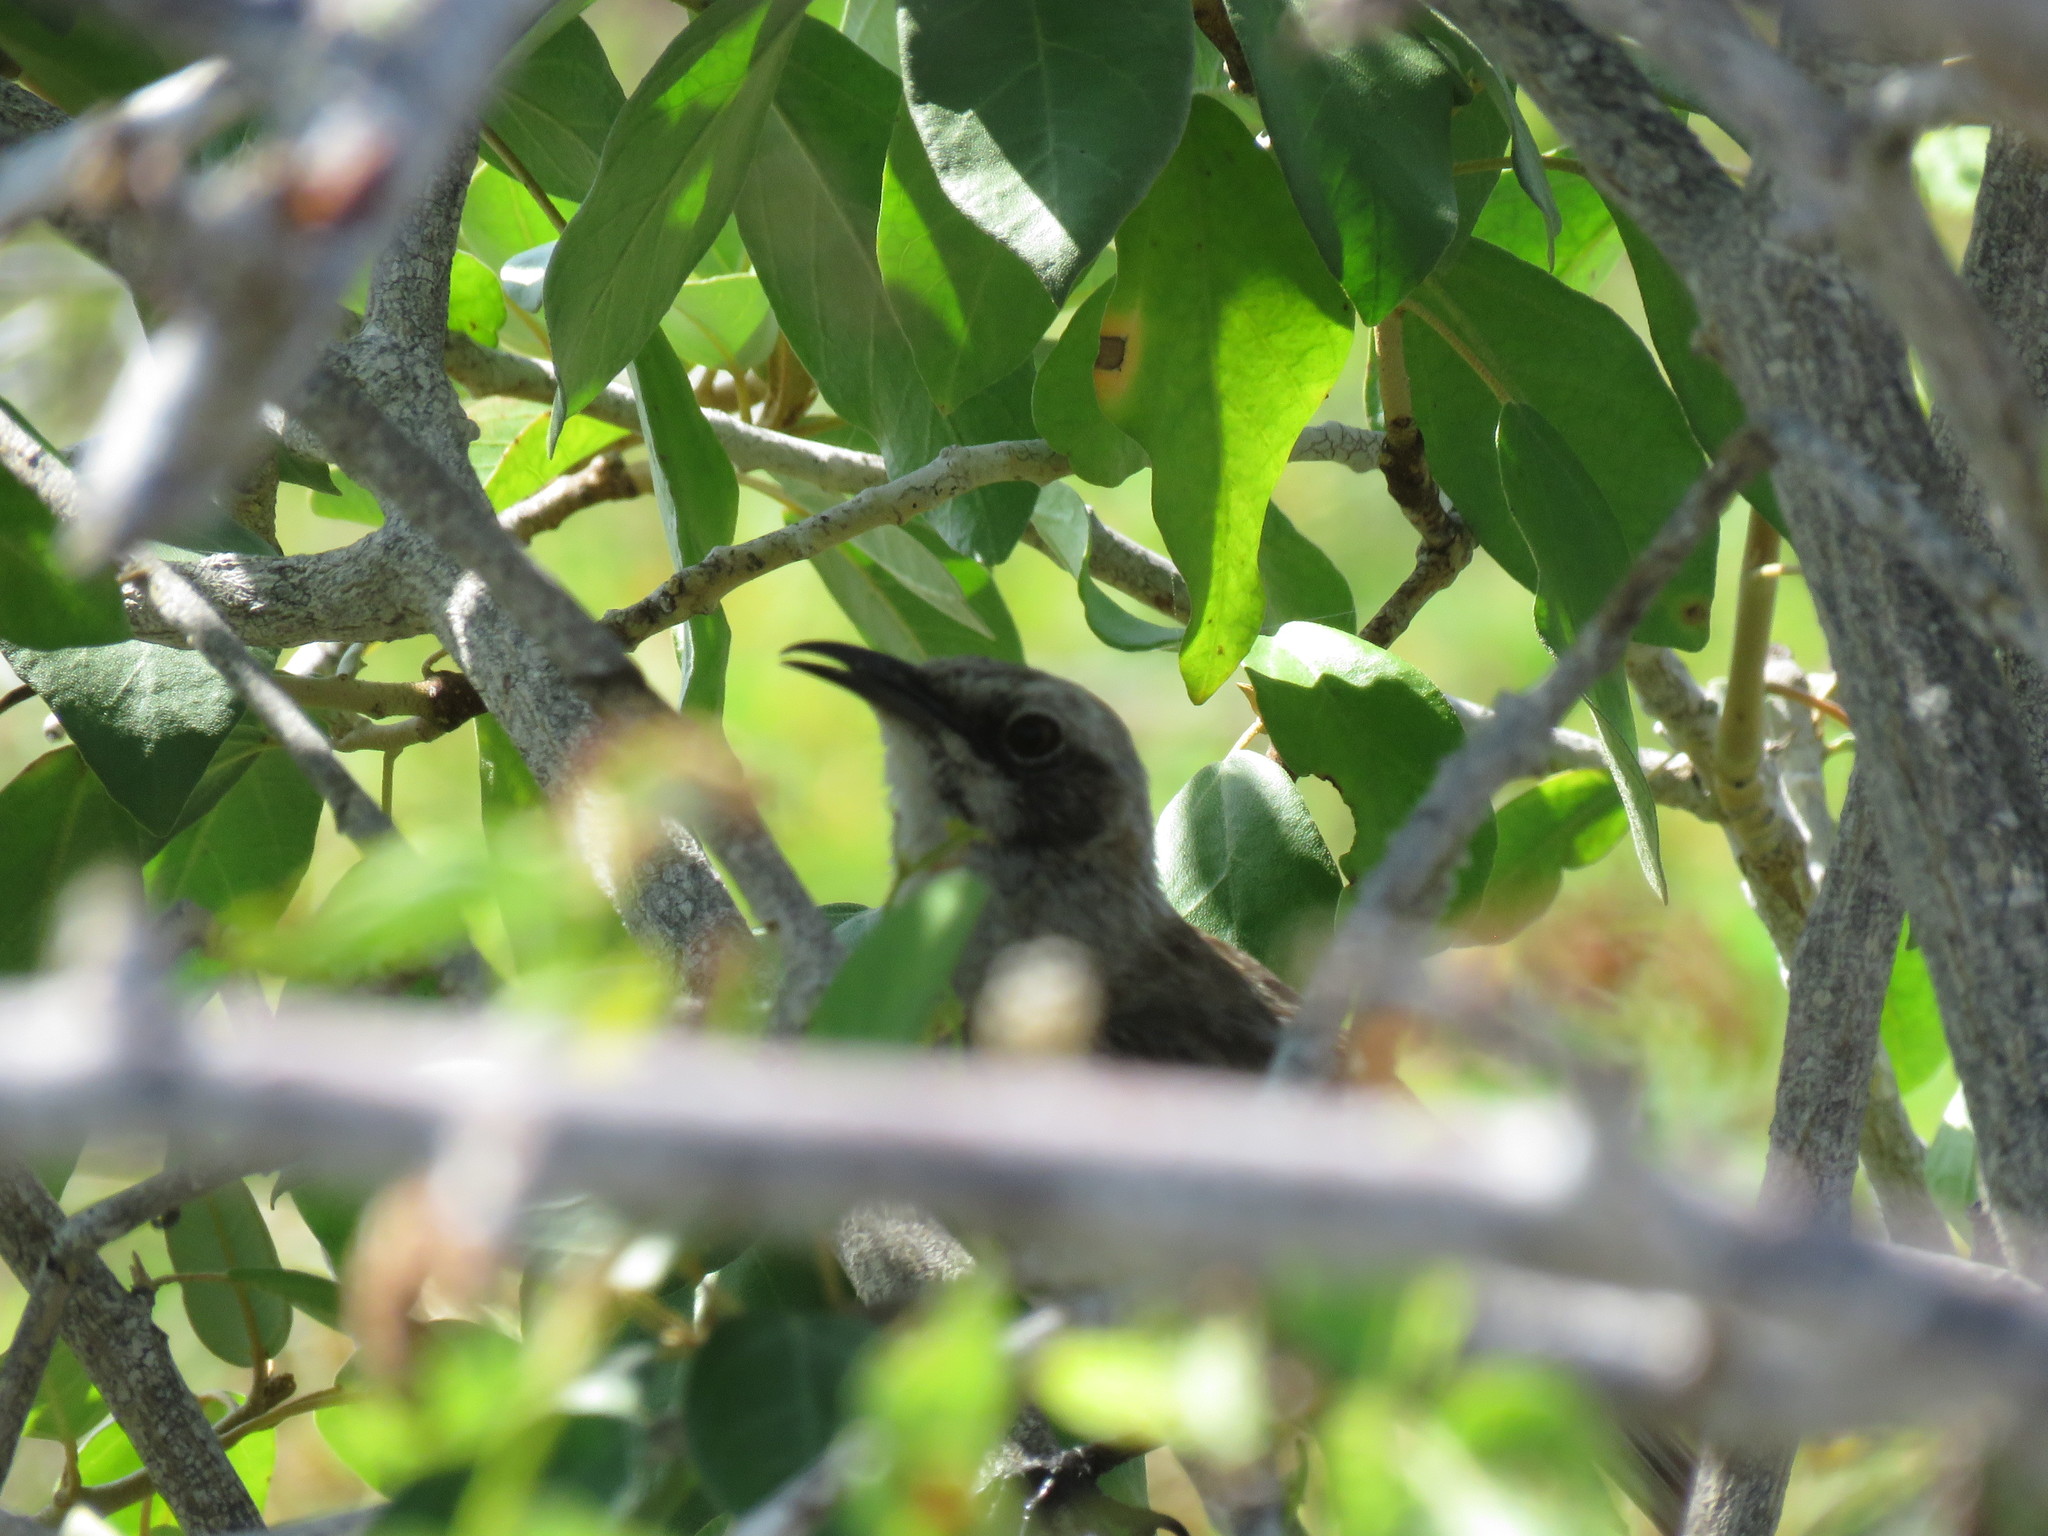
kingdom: Animalia
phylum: Chordata
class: Aves
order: Passeriformes
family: Mimidae
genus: Mimus
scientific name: Mimus melanotis
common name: San cristobal mockingbird
